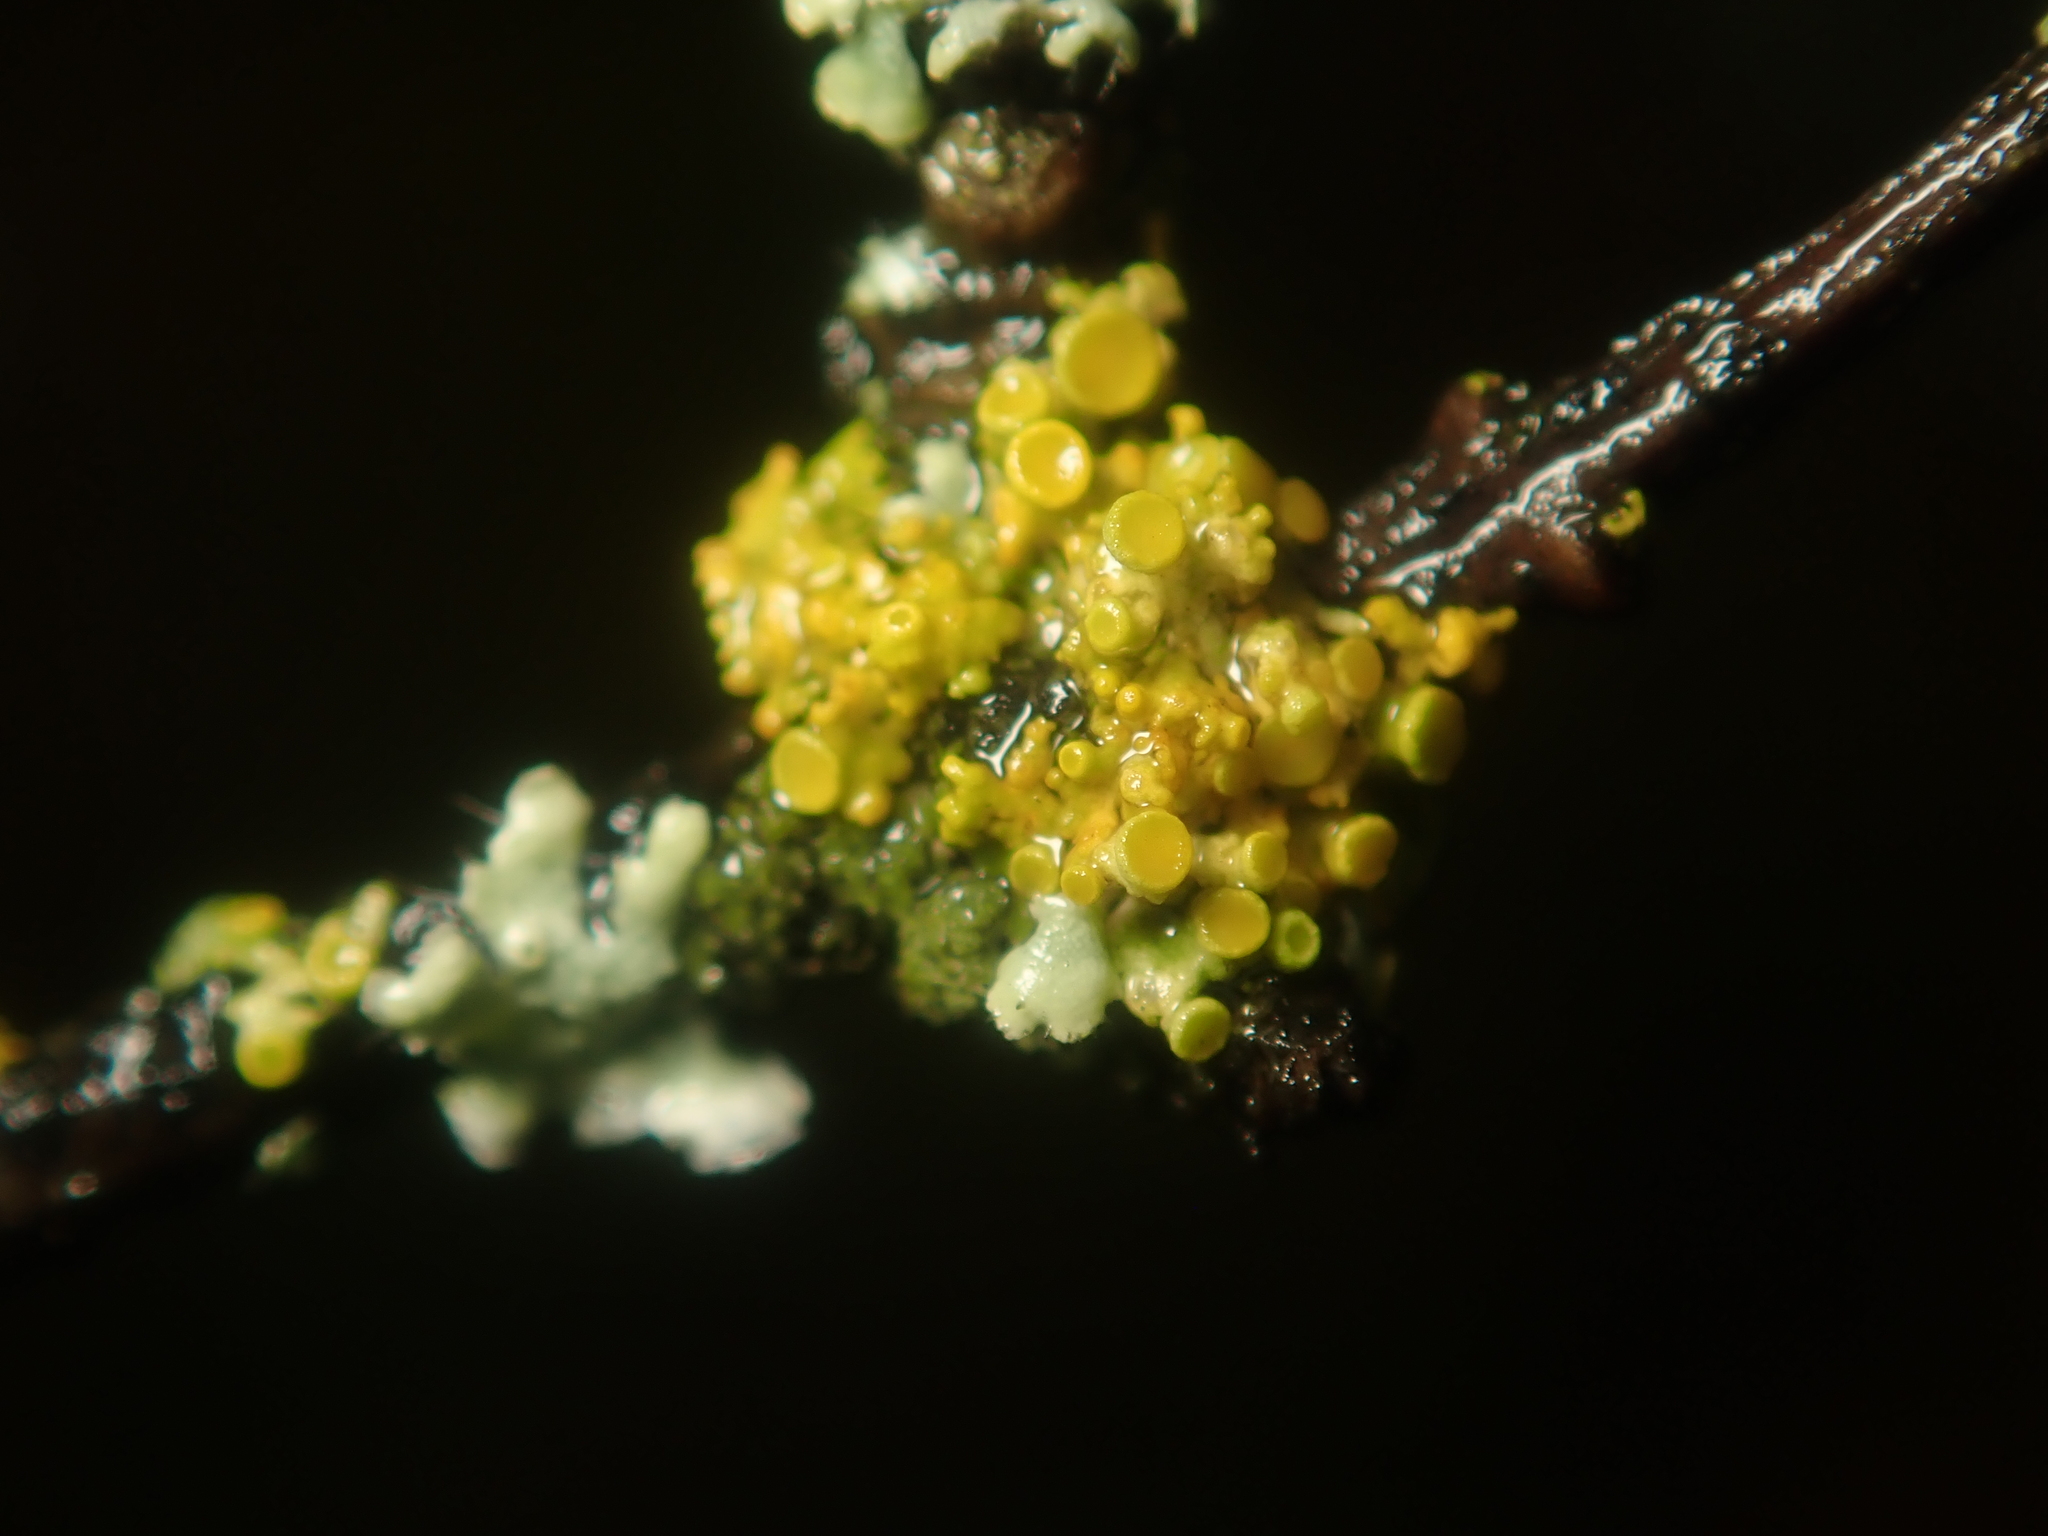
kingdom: Fungi
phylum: Ascomycota
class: Lecanoromycetes
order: Teloschistales
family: Teloschistaceae
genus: Polycauliona
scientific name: Polycauliona polycarpa
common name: Pin-cushion sunburst lichen
